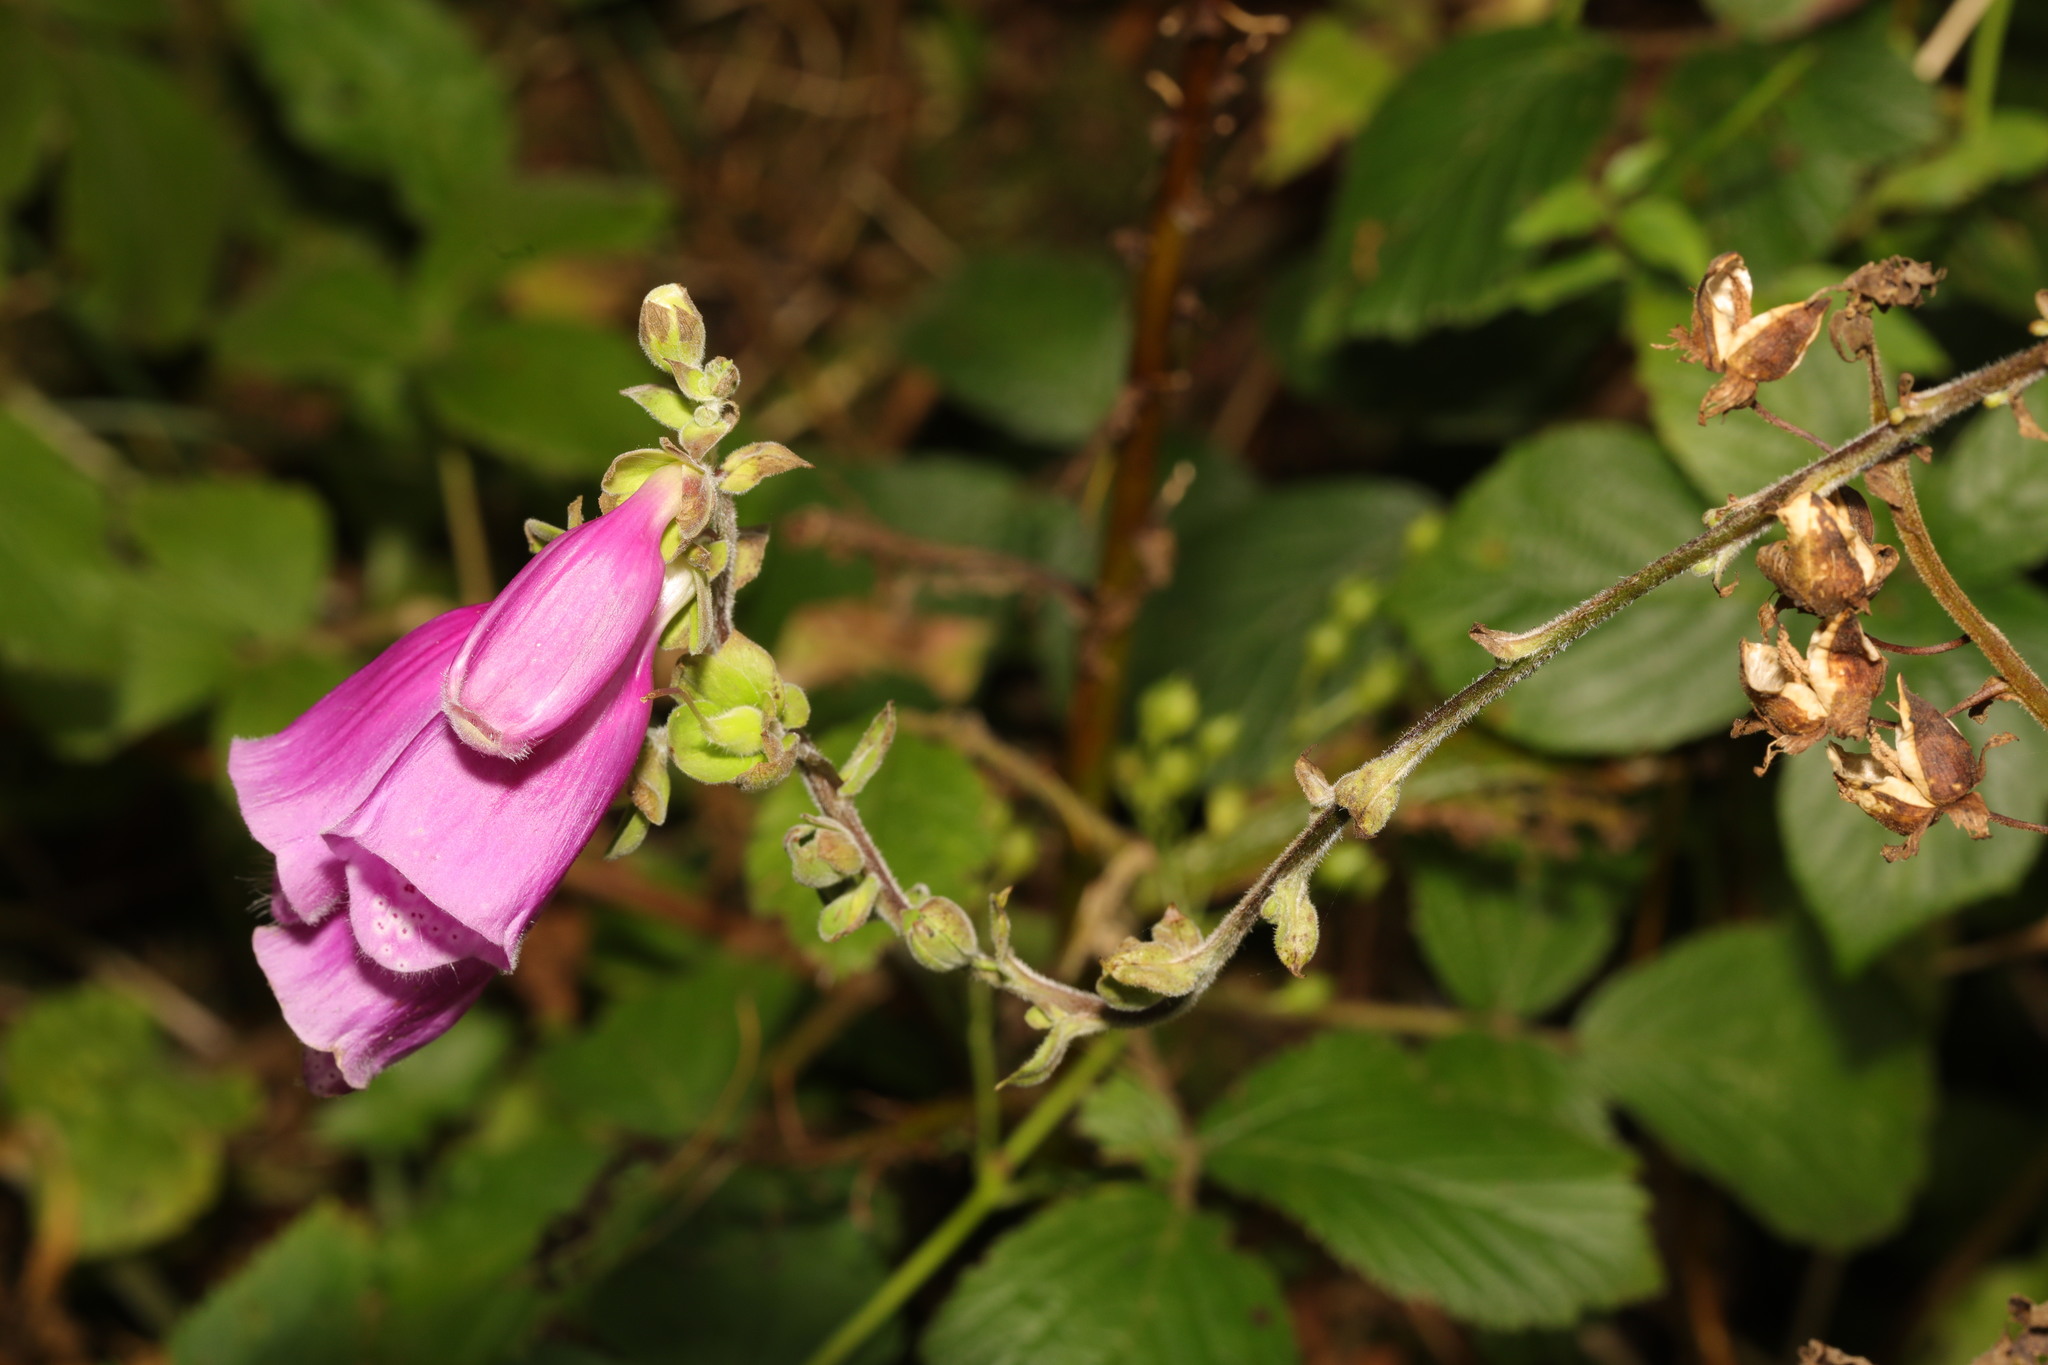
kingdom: Plantae
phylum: Tracheophyta
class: Magnoliopsida
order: Lamiales
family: Plantaginaceae
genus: Digitalis
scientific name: Digitalis purpurea
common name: Foxglove
